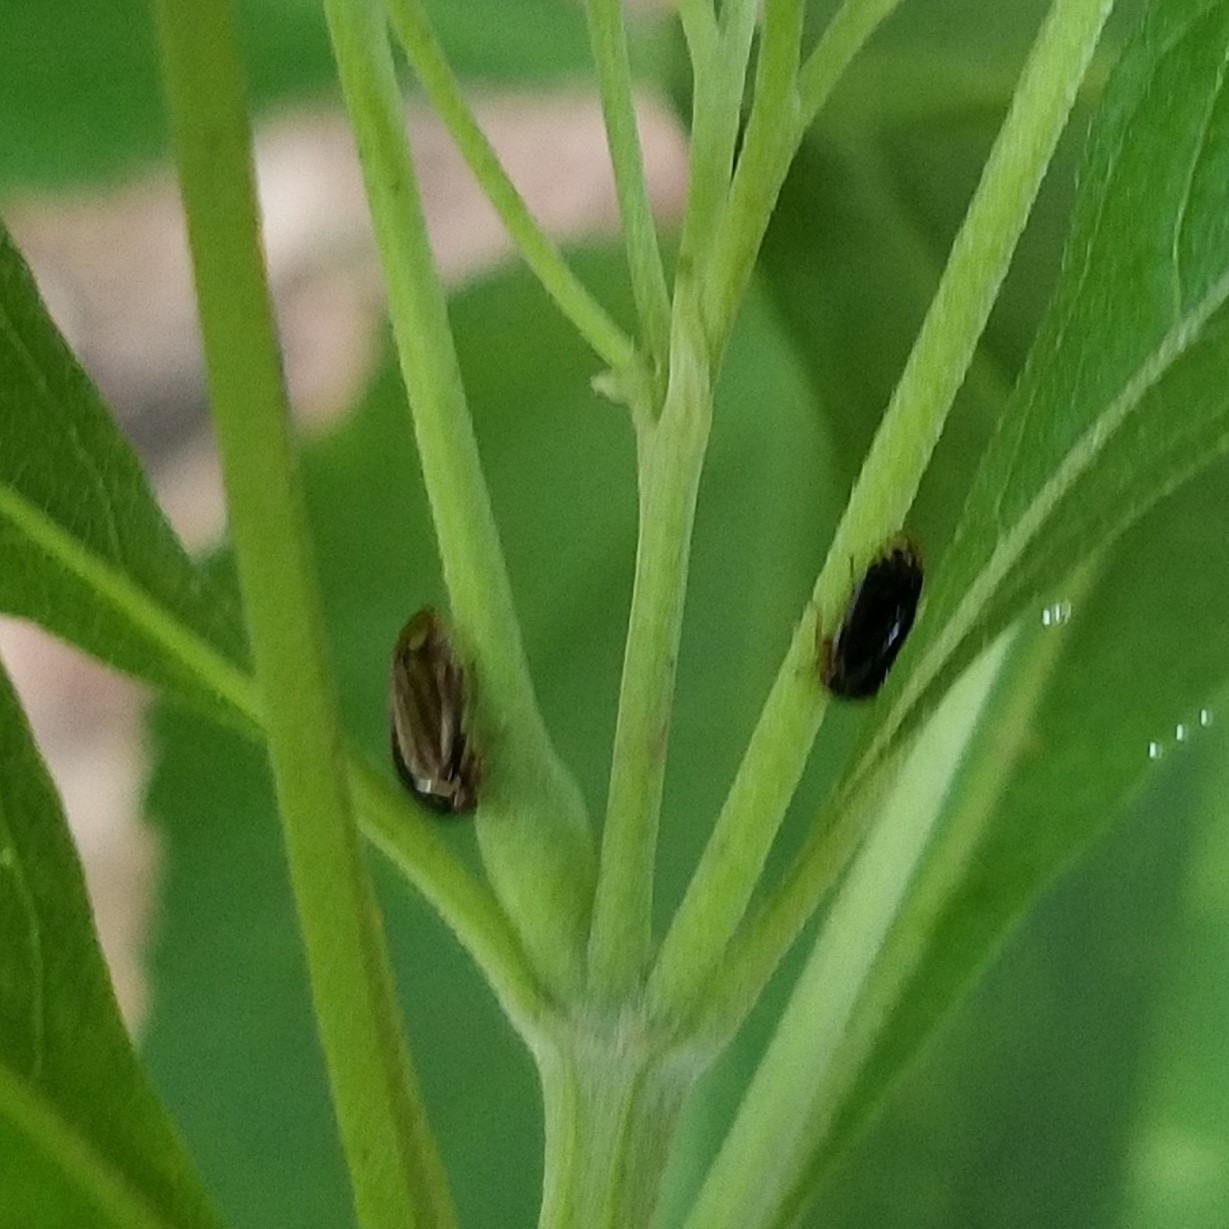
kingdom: Animalia
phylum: Arthropoda
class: Insecta
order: Hemiptera
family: Membracidae
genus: Acutalis
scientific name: Acutalis tartarea
